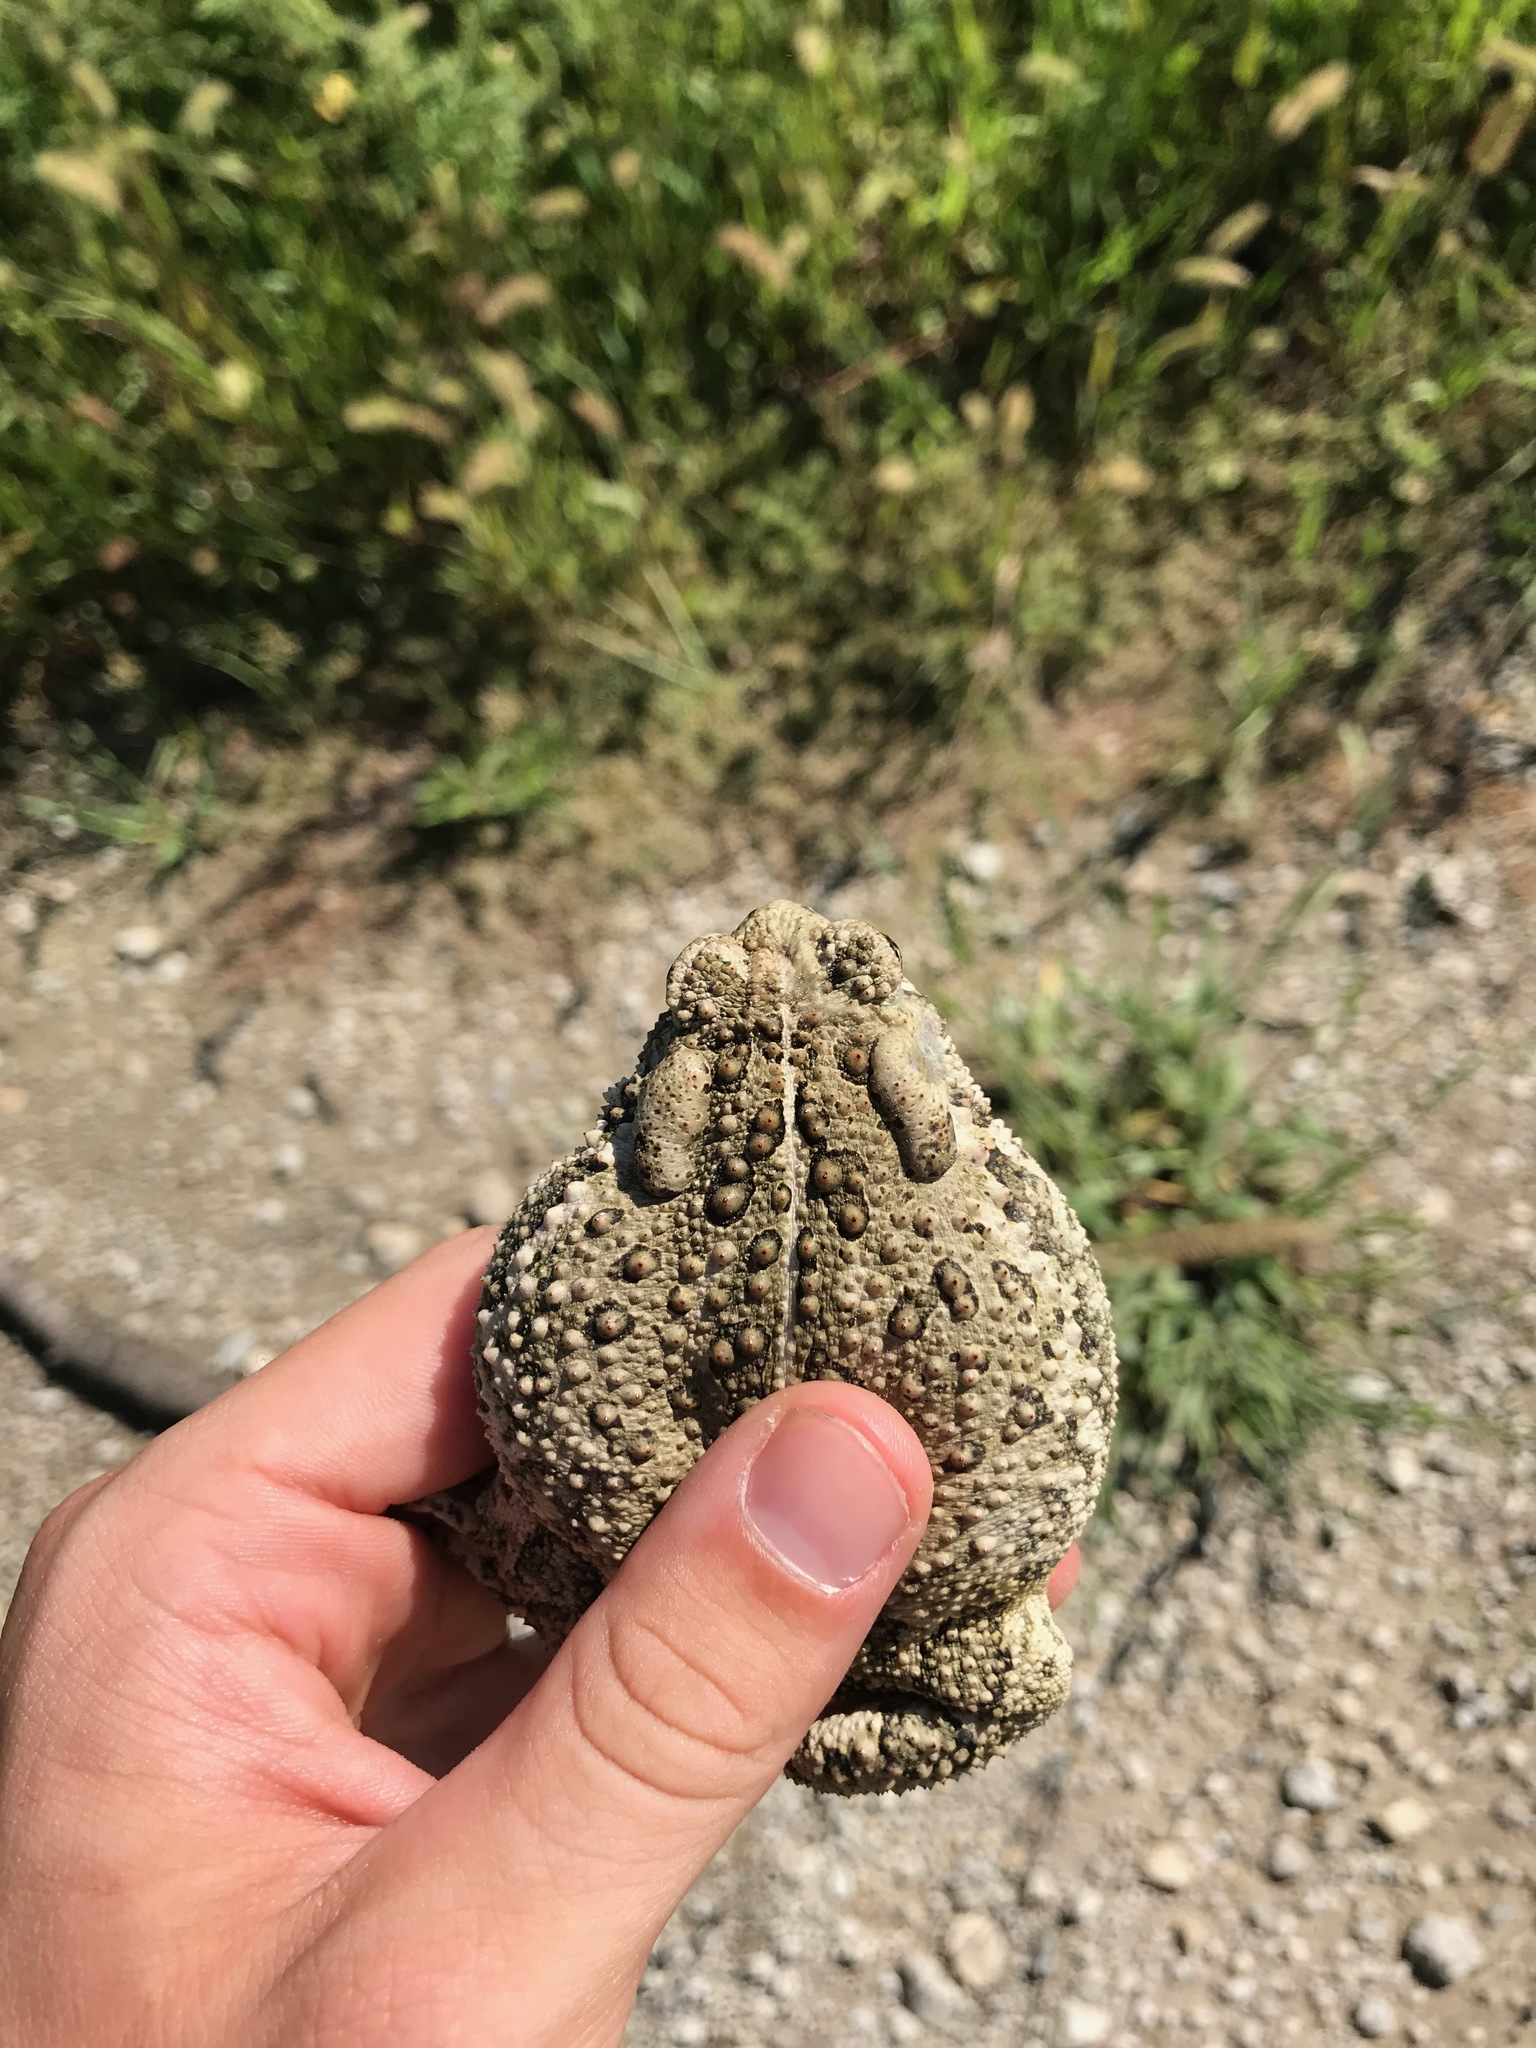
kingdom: Animalia
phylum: Chordata
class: Amphibia
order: Anura
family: Bufonidae
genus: Anaxyrus
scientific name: Anaxyrus woodhousii
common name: Woodhouse's toad
